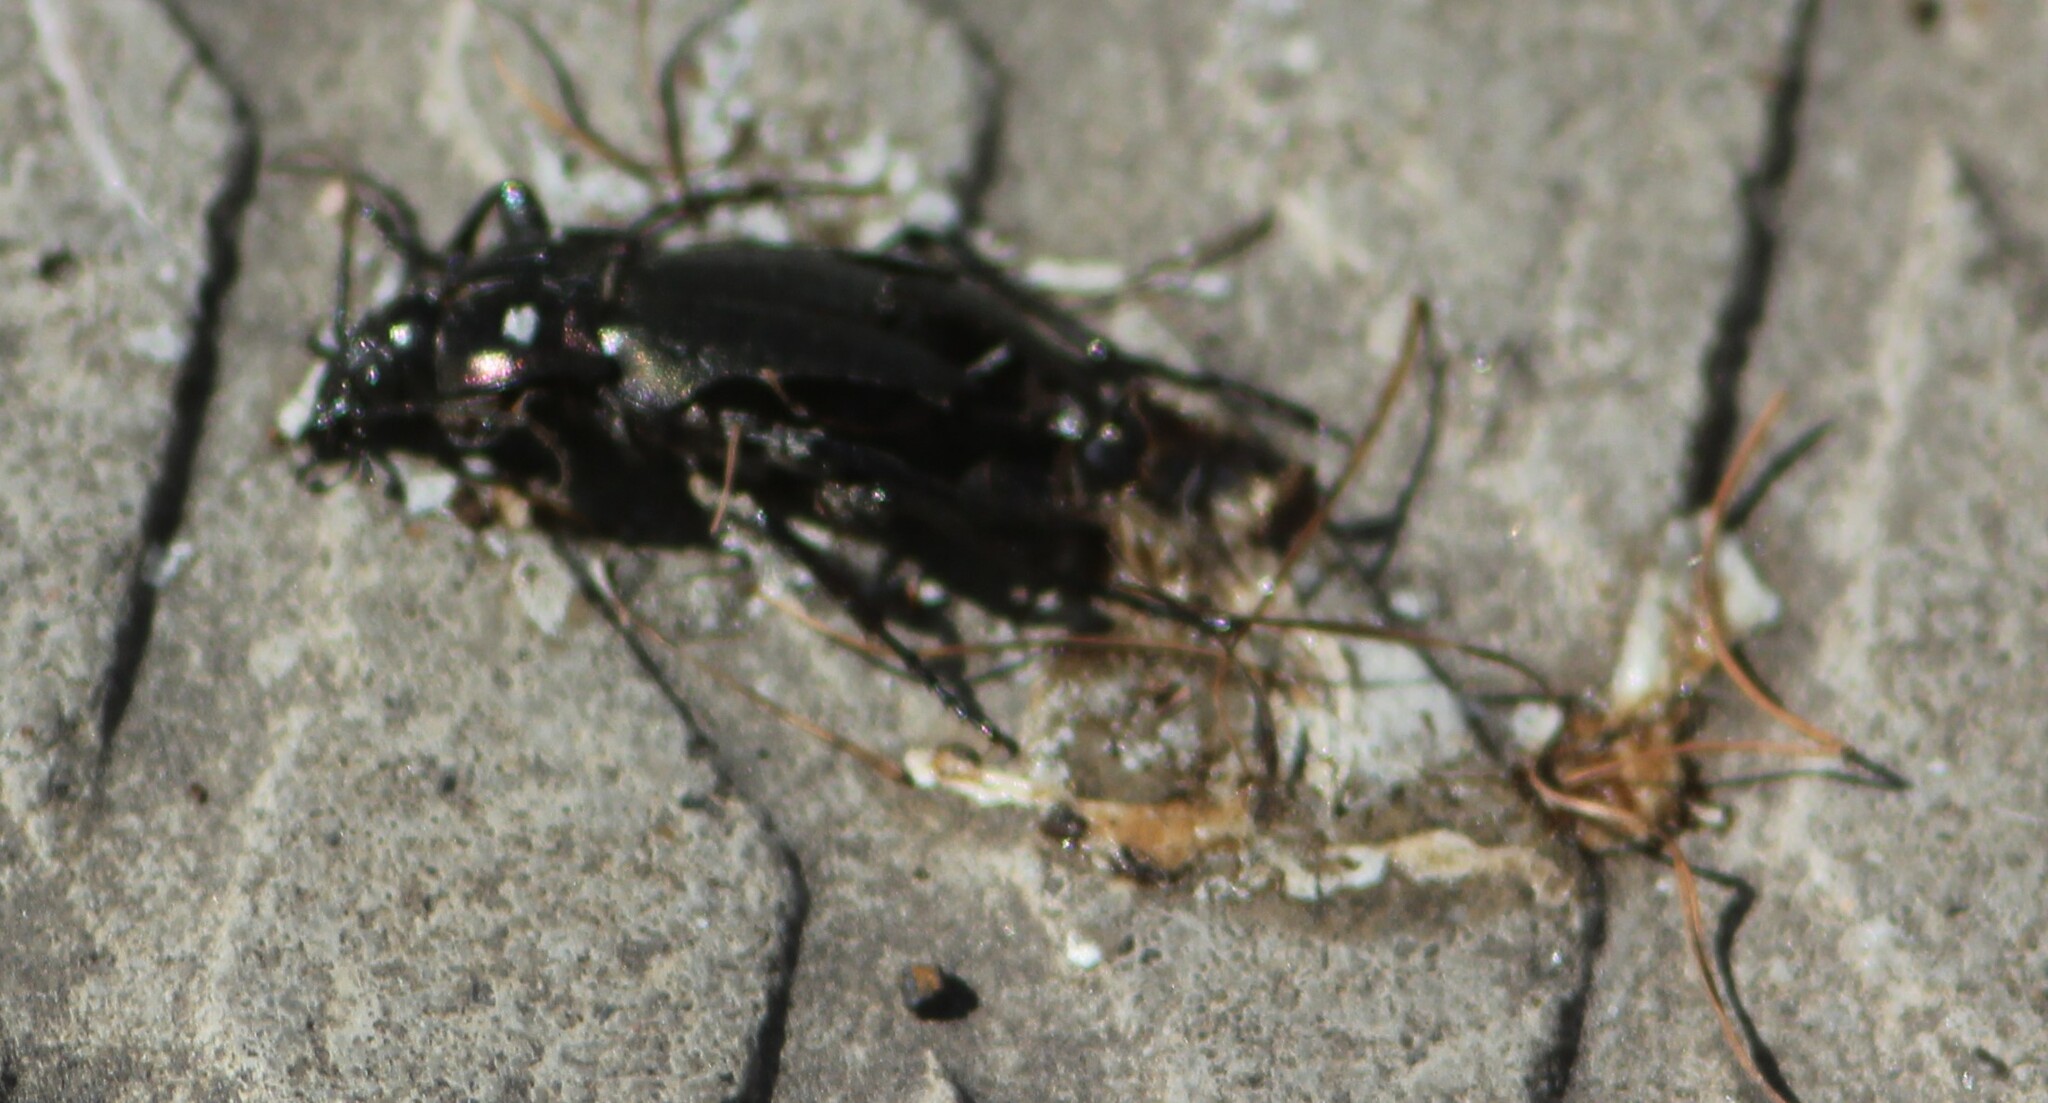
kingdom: Animalia
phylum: Arthropoda
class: Insecta
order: Coleoptera
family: Carabidae
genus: Carabus
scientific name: Carabus nemoralis
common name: European ground beetle
